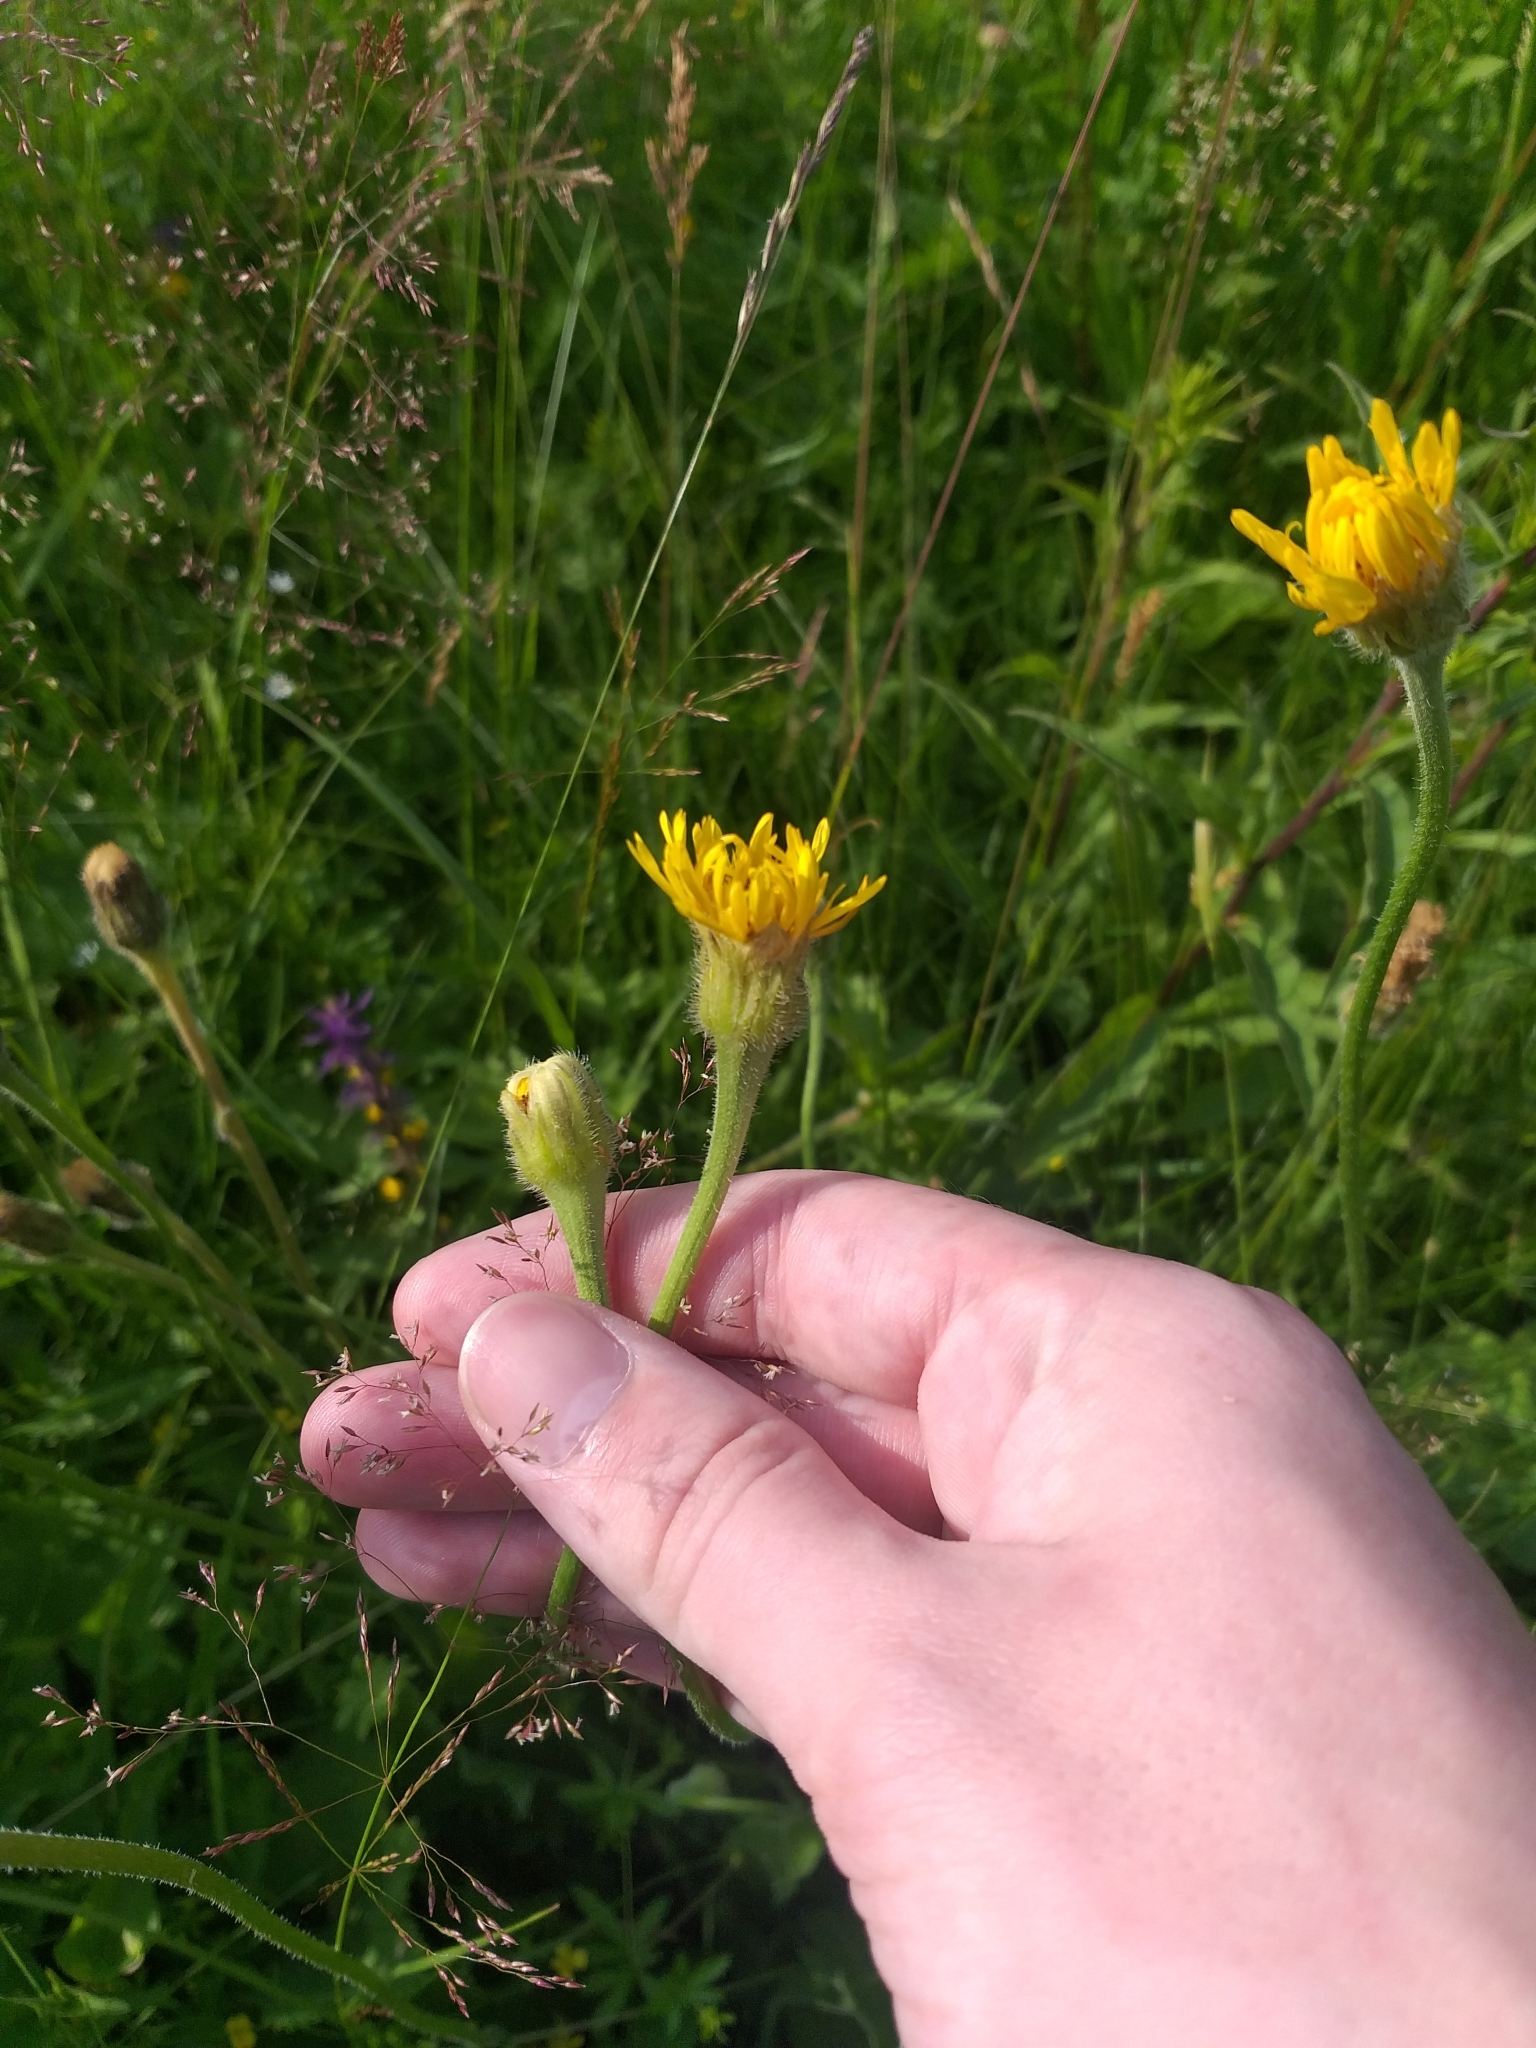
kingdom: Plantae
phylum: Tracheophyta
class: Magnoliopsida
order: Asterales
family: Asteraceae
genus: Leontodon
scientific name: Leontodon hispidus
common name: Rough hawkbit
